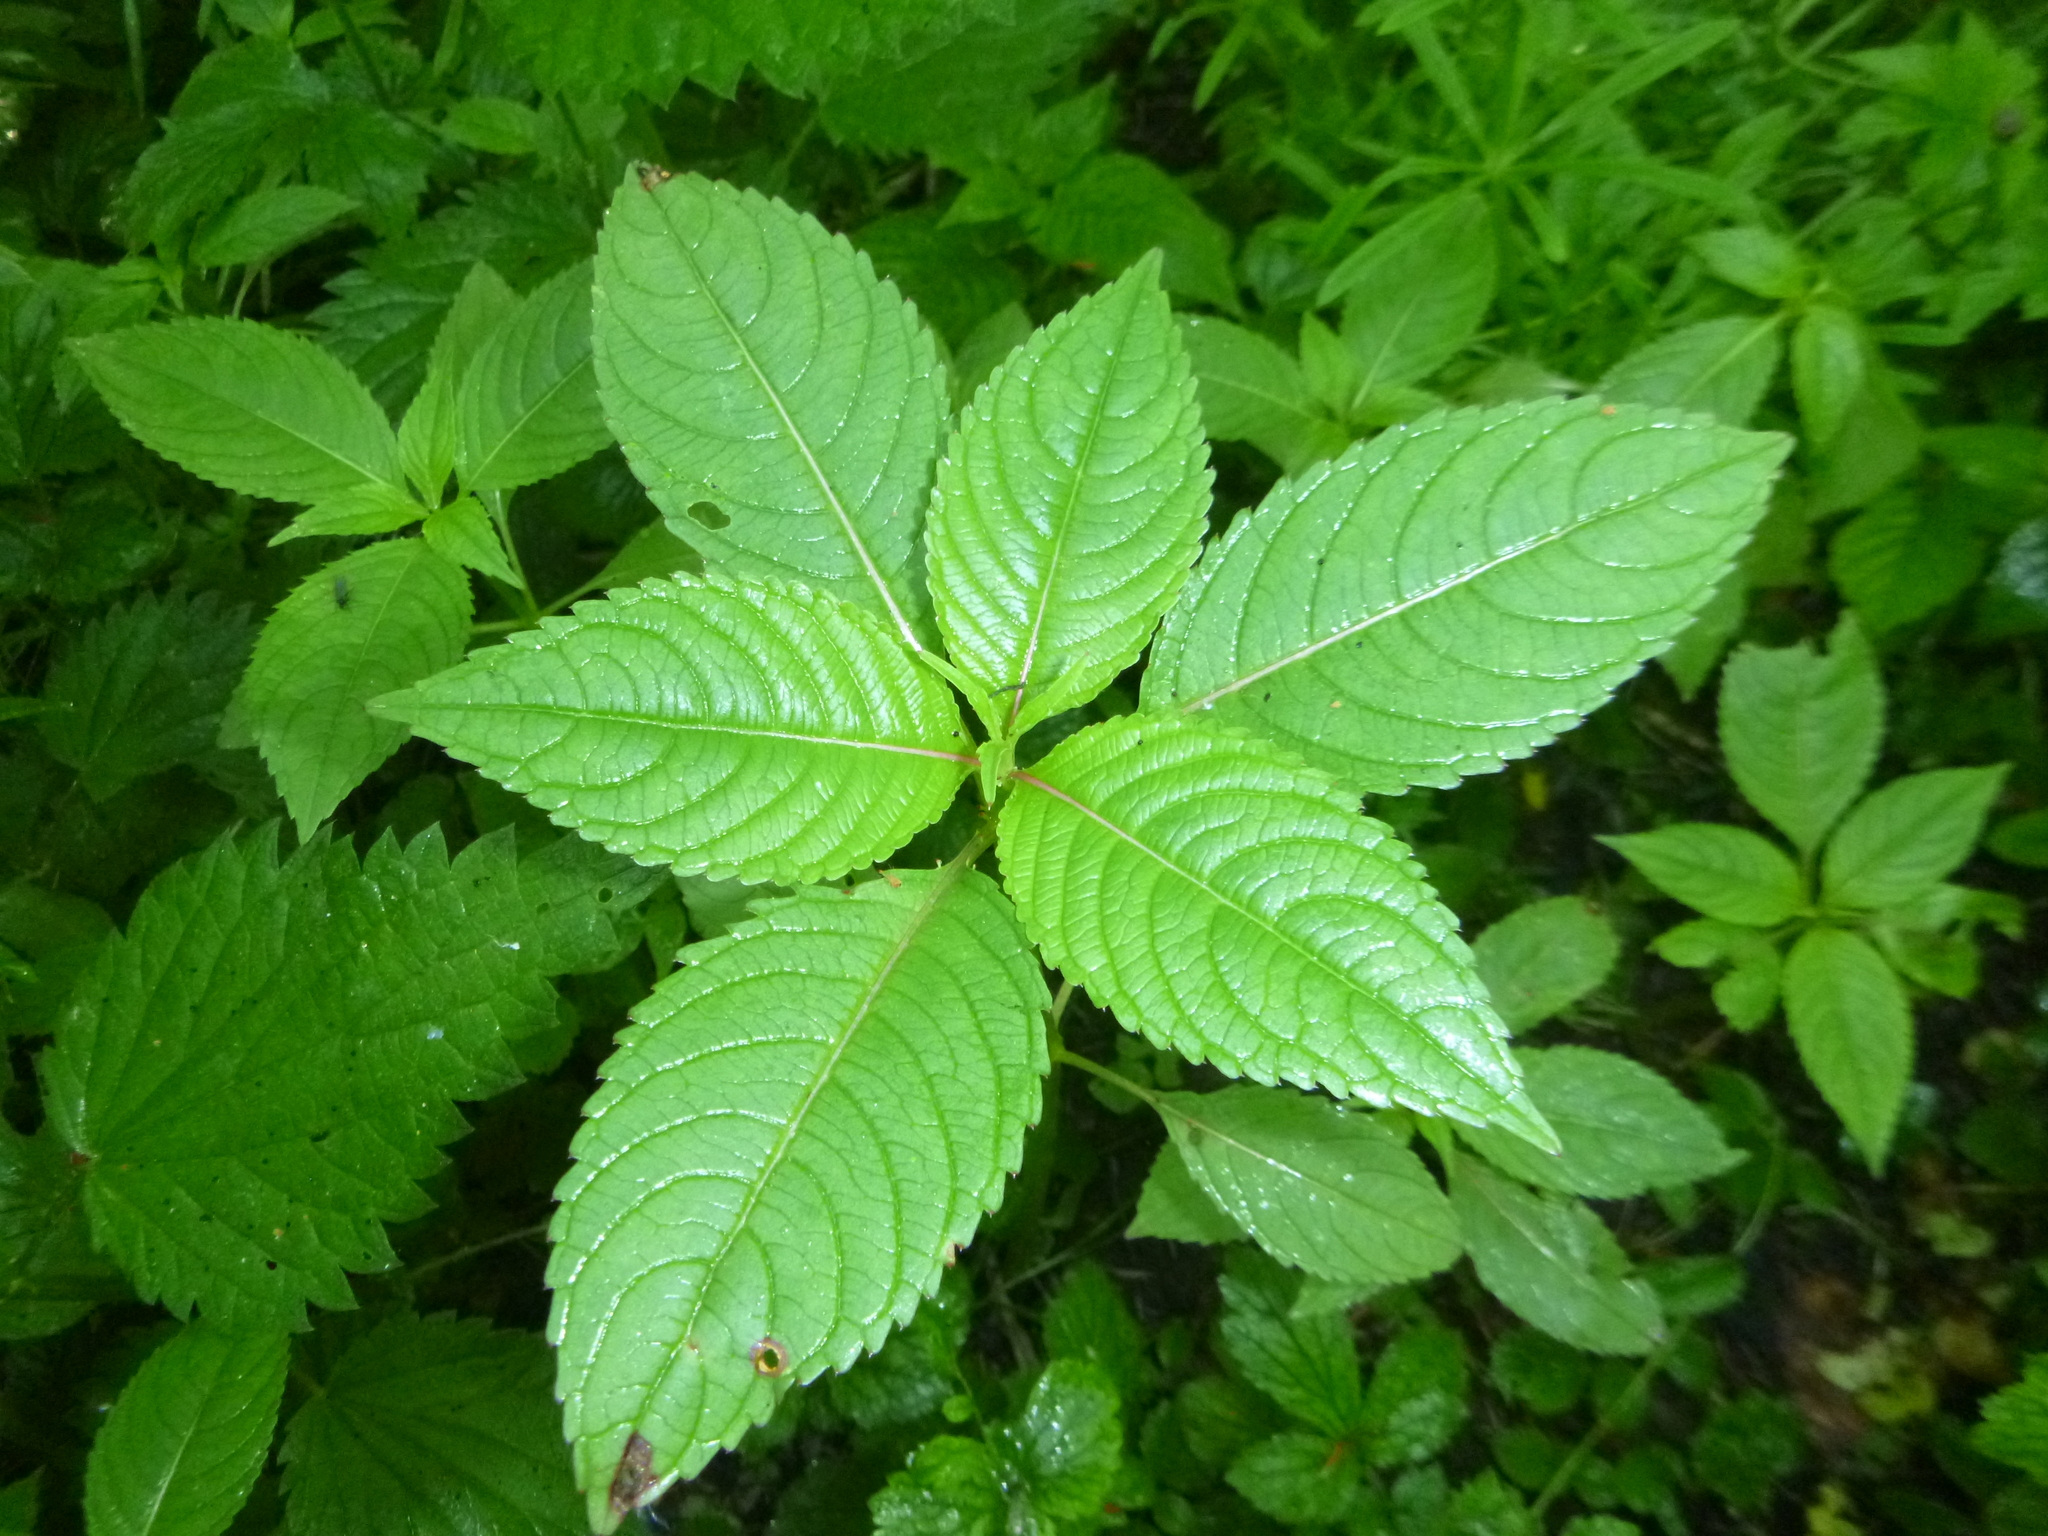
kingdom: Plantae
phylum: Tracheophyta
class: Magnoliopsida
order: Ericales
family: Balsaminaceae
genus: Impatiens
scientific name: Impatiens glandulifera
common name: Himalayan balsam
